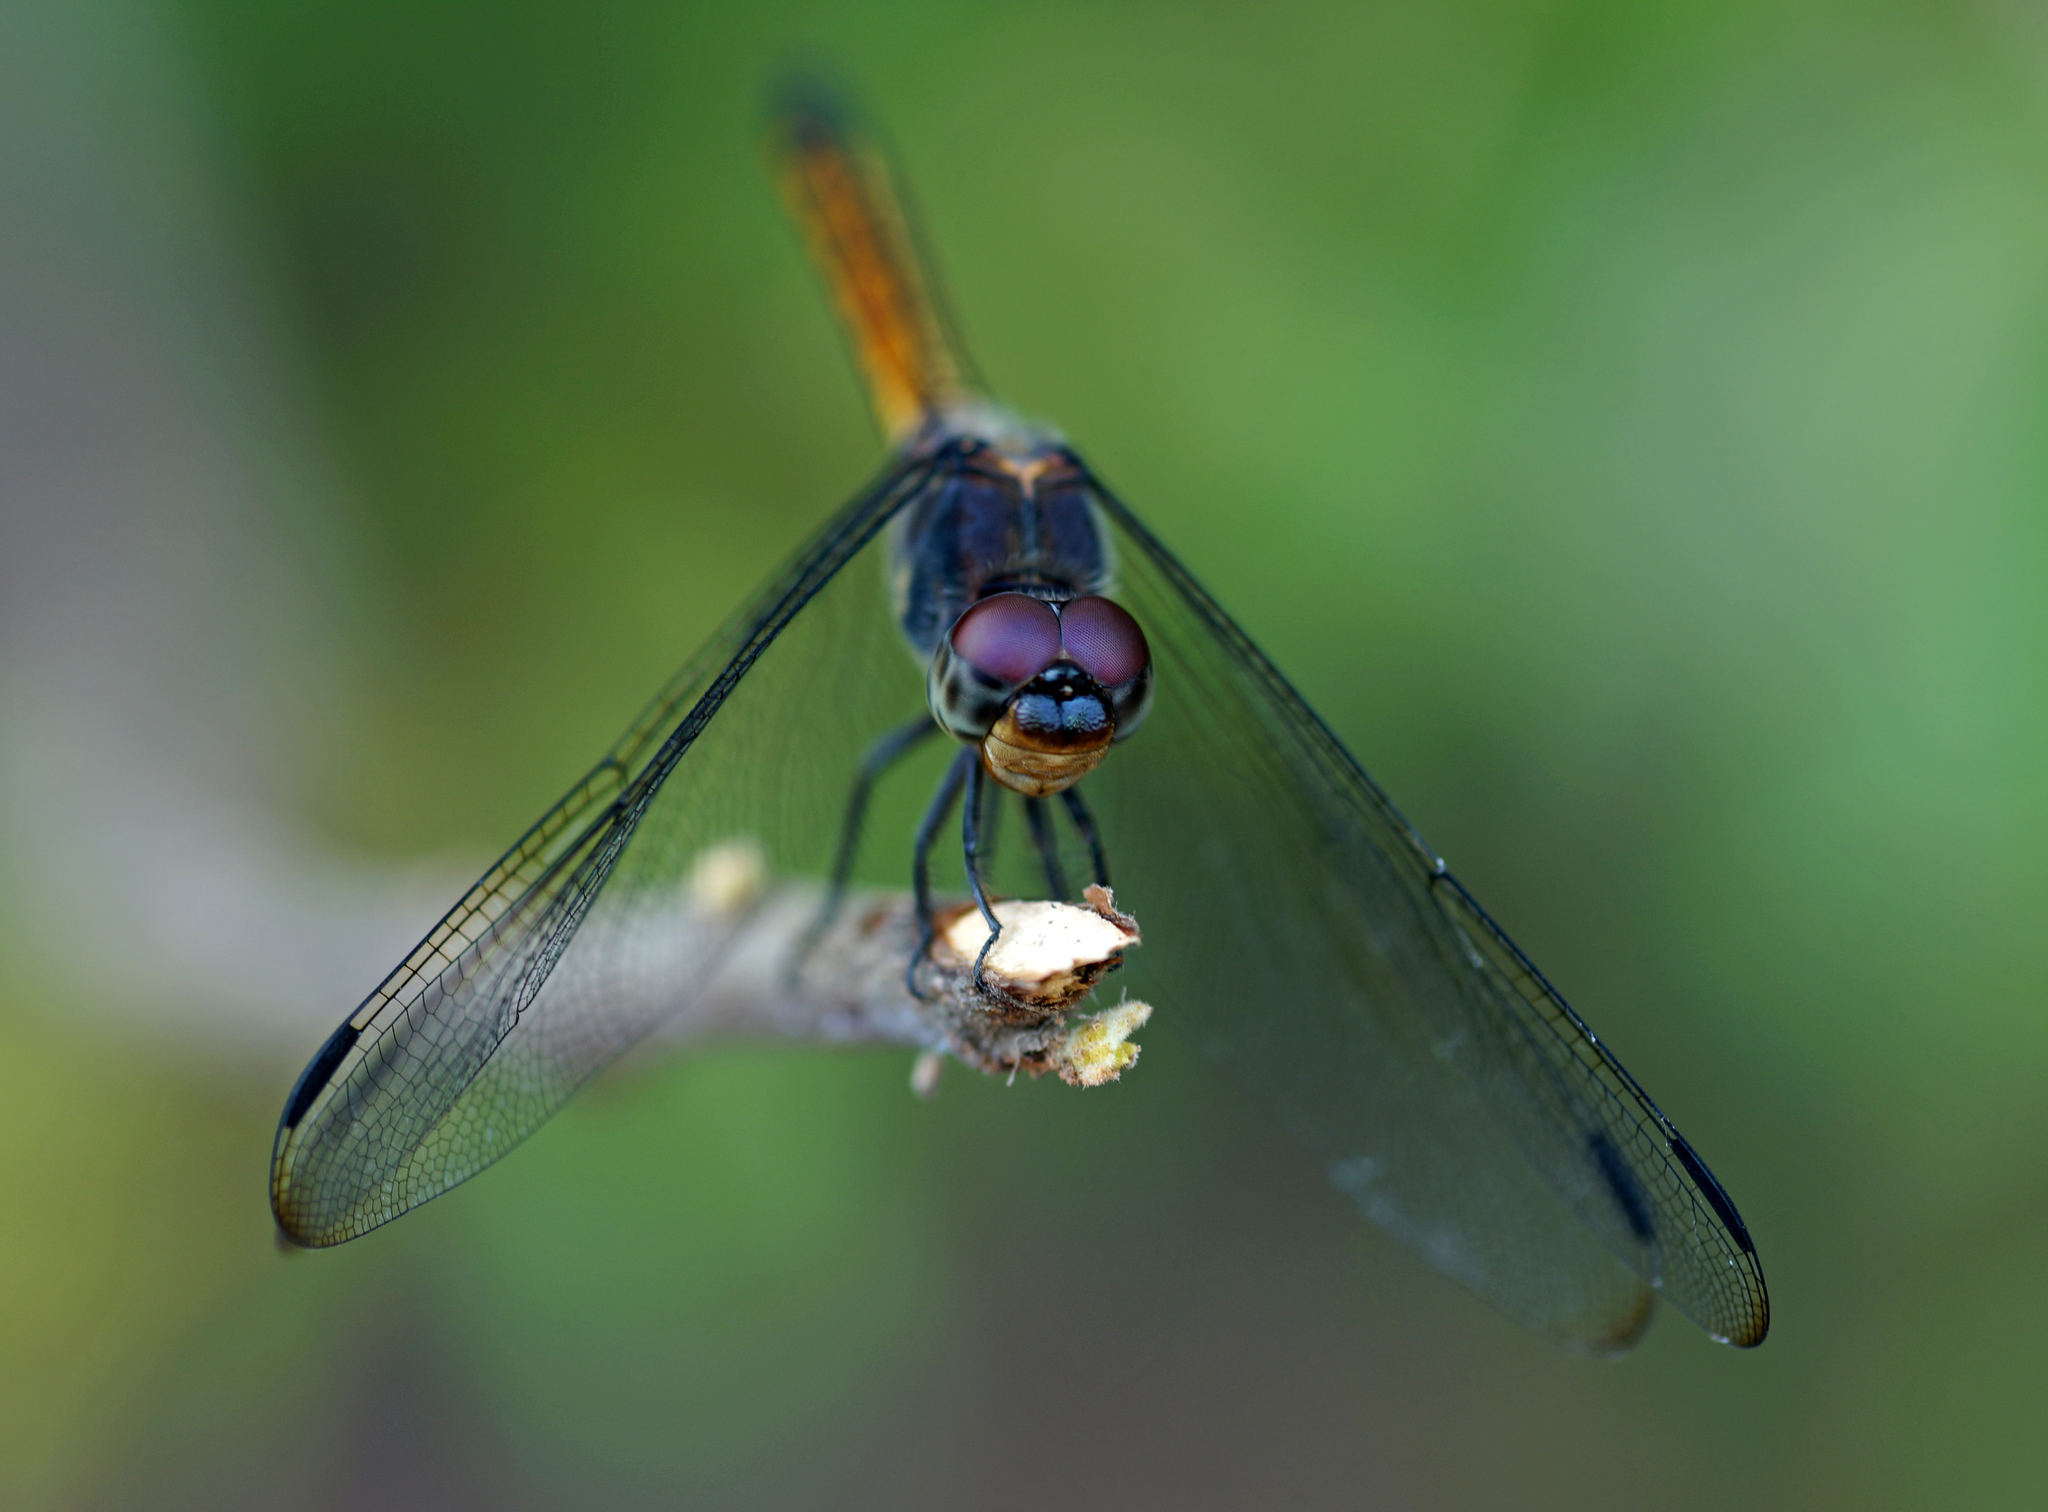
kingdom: Animalia
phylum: Arthropoda
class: Insecta
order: Odonata
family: Libellulidae
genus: Potamarcha
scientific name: Potamarcha congener
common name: Blue chaser
